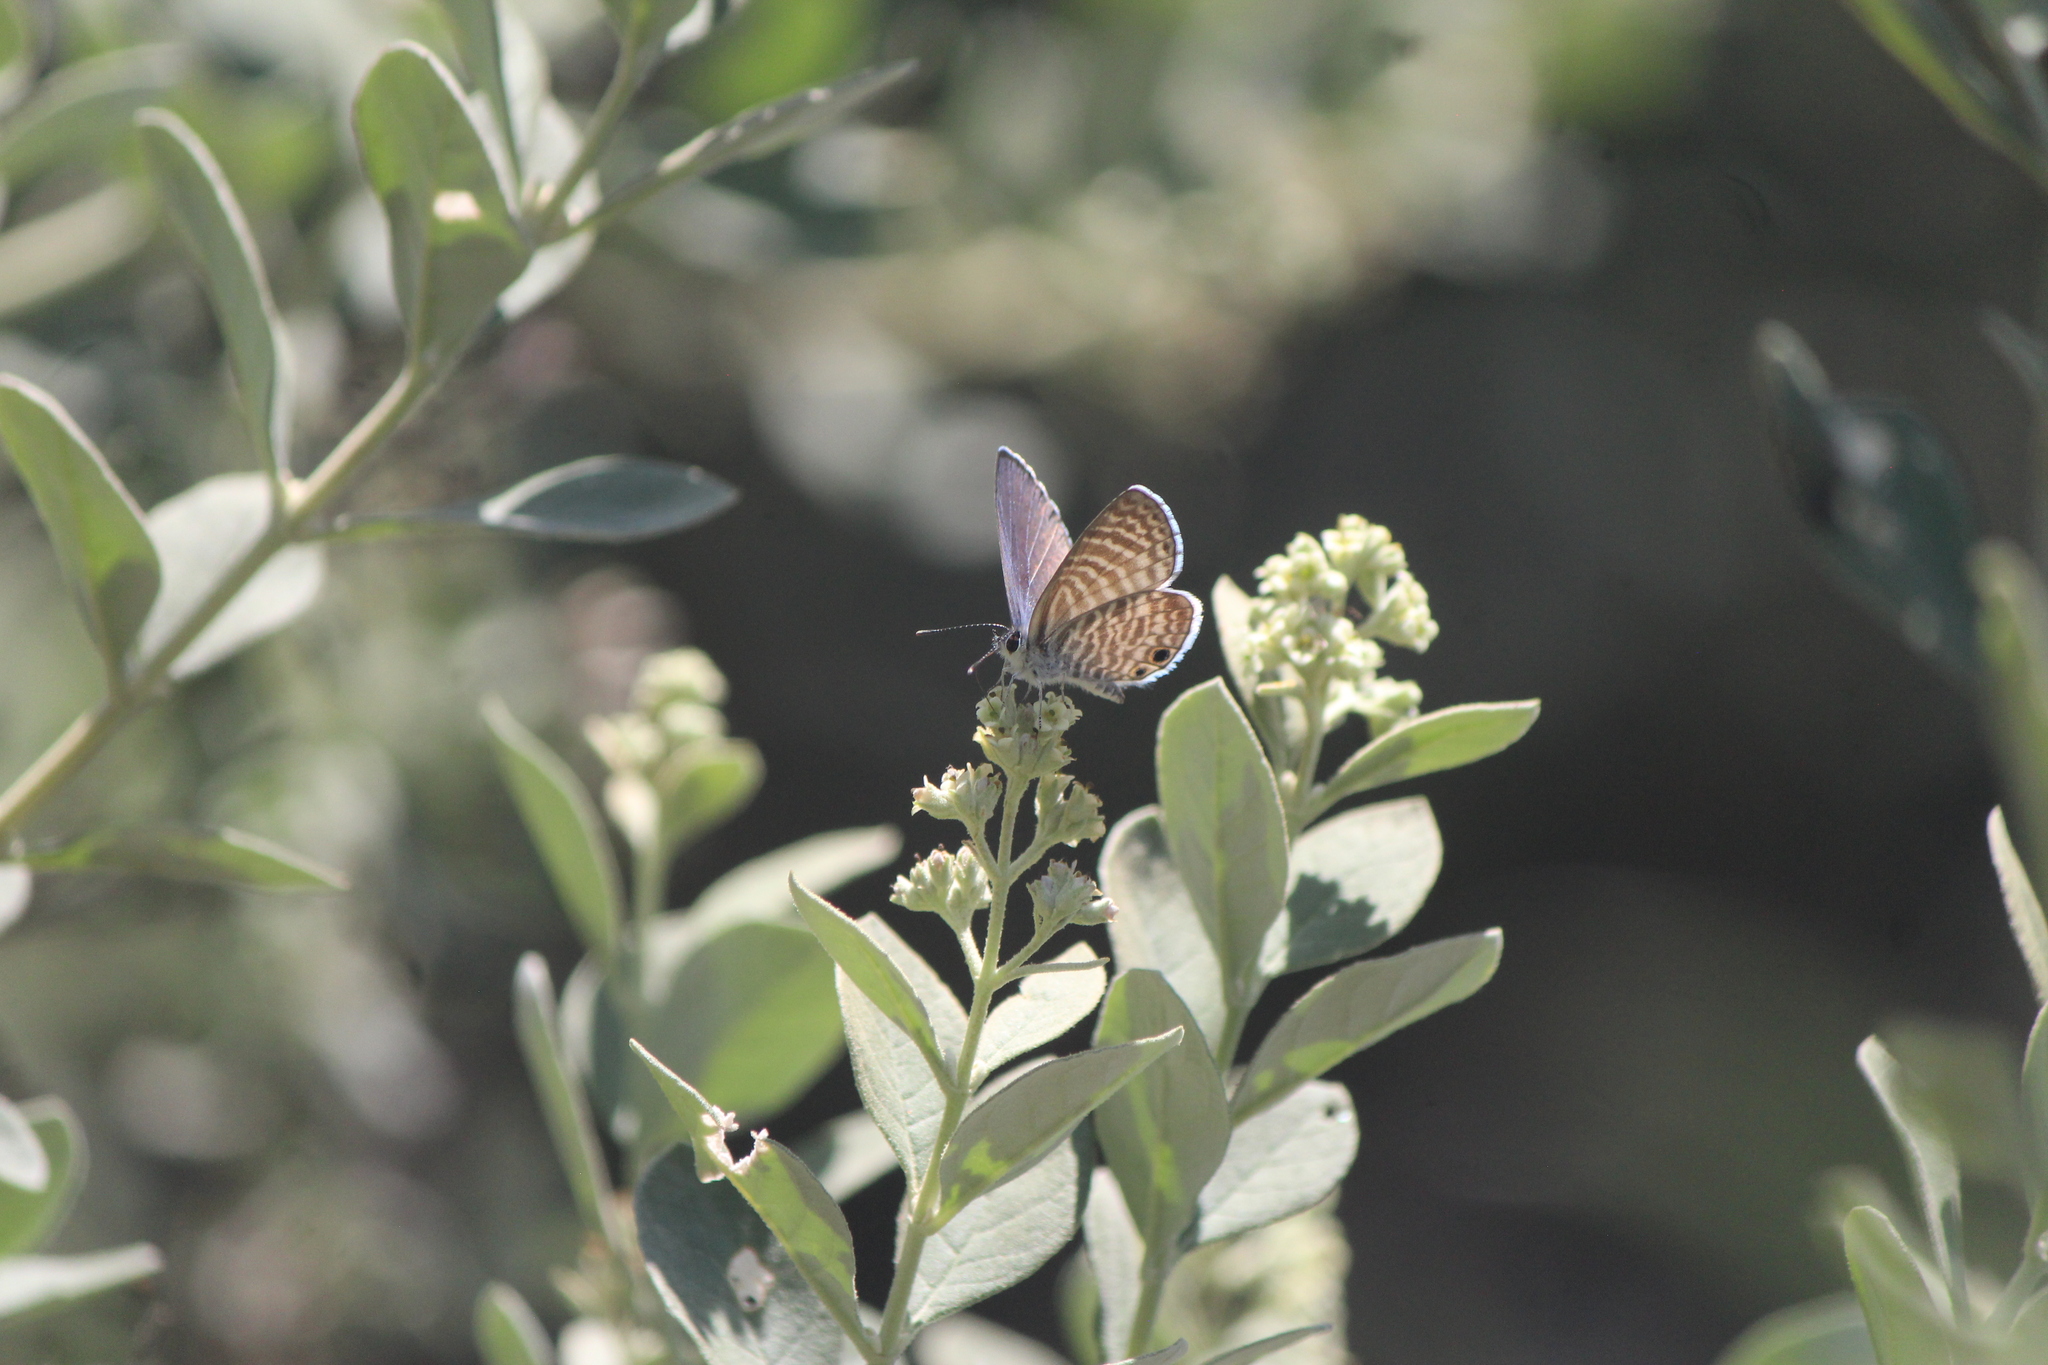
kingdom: Animalia
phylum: Arthropoda
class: Insecta
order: Lepidoptera
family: Lycaenidae
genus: Leptotes
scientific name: Leptotes marina
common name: Marine blue
